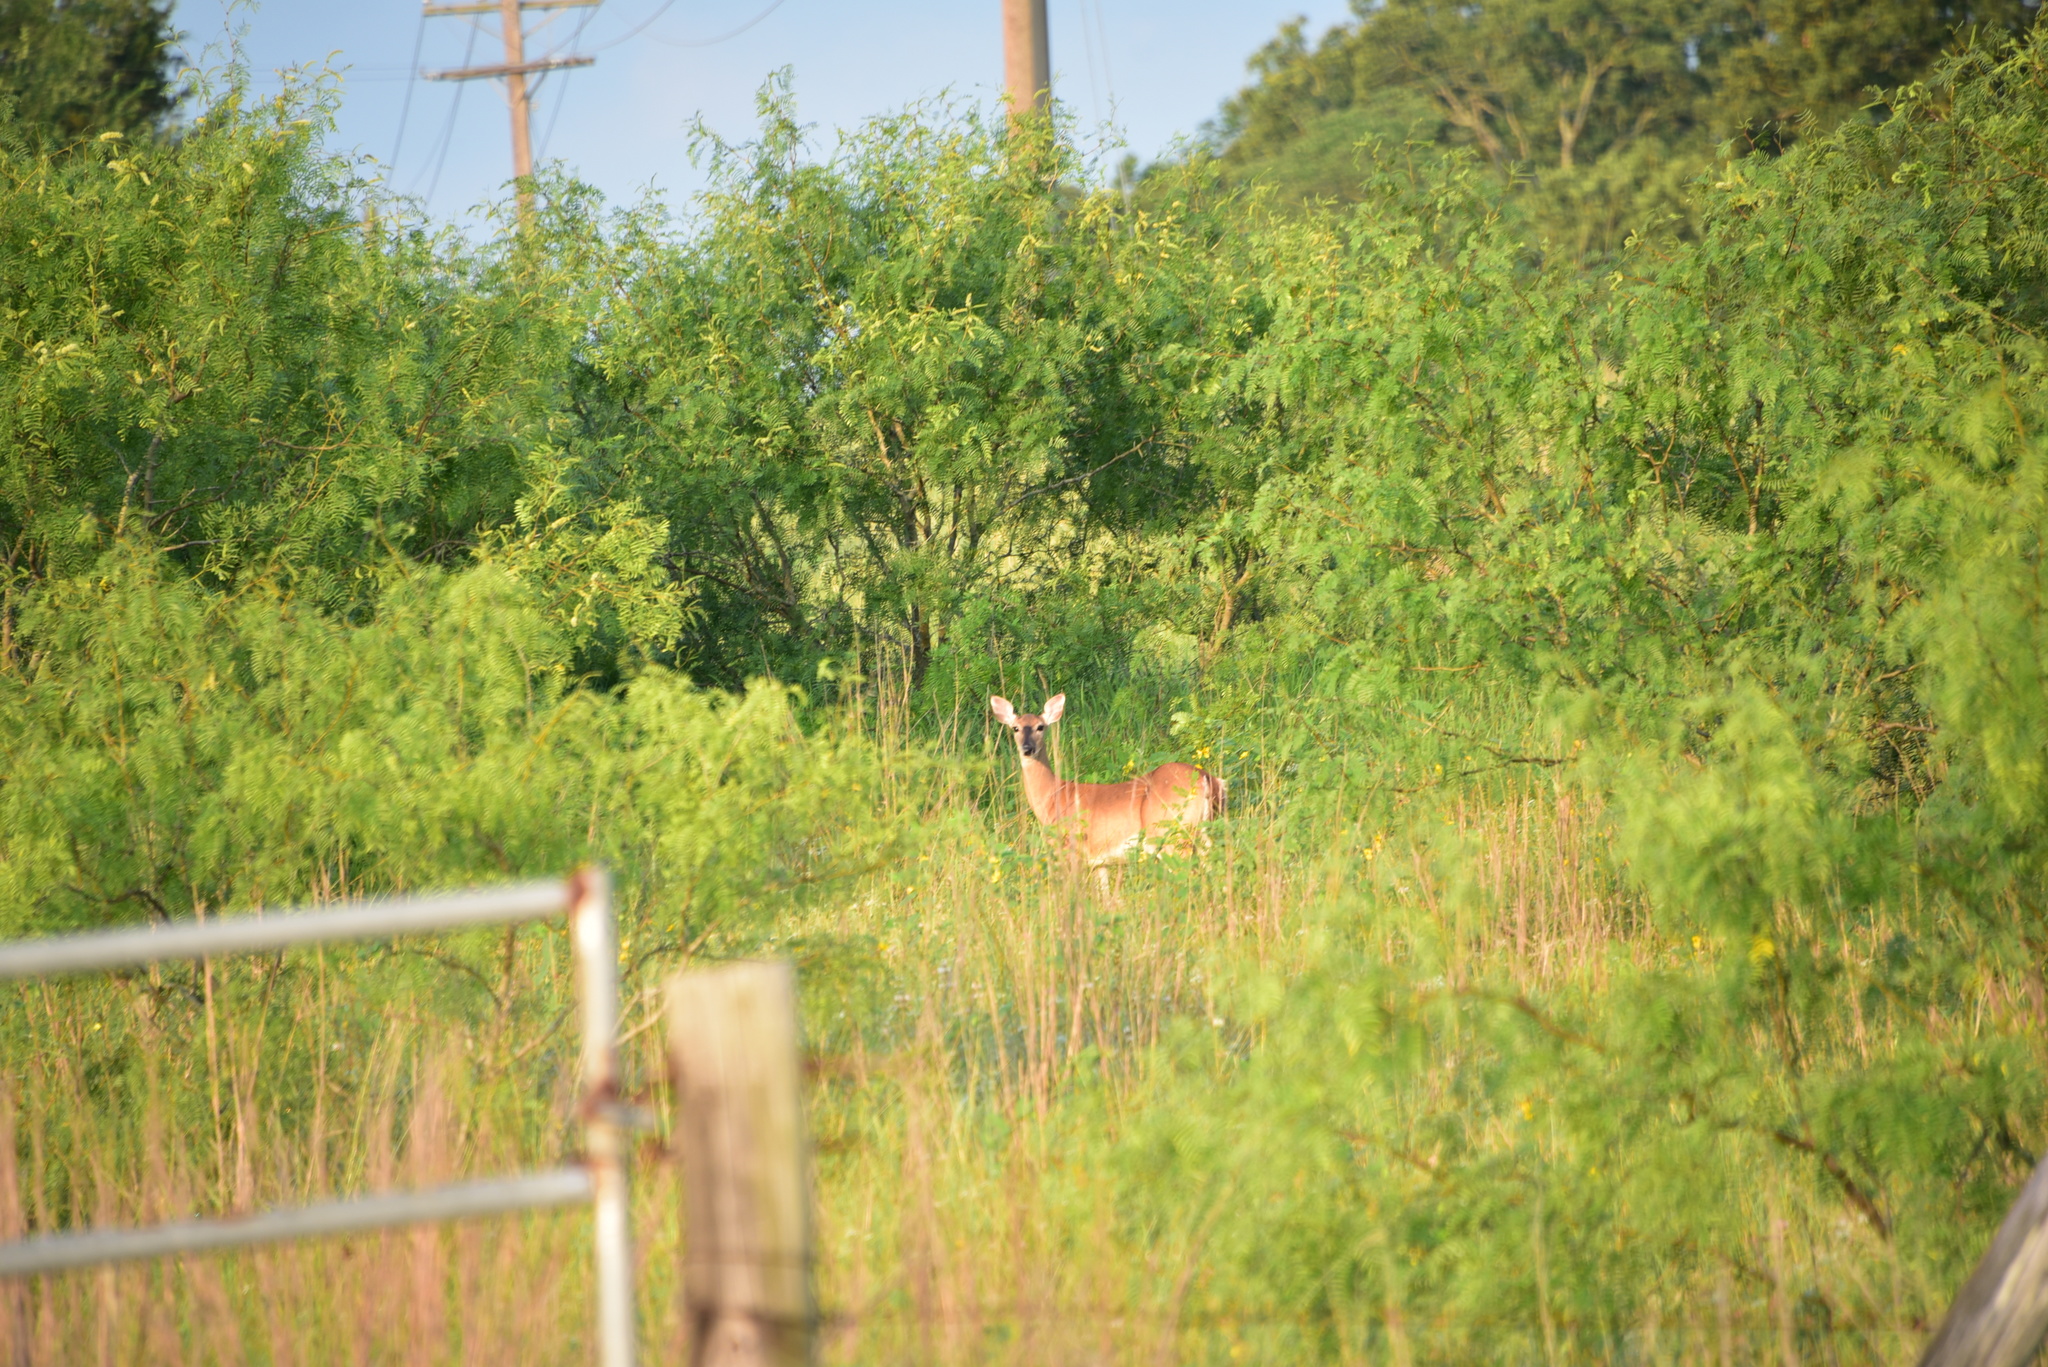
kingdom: Animalia
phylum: Chordata
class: Mammalia
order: Artiodactyla
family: Cervidae
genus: Odocoileus
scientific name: Odocoileus virginianus
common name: White-tailed deer
